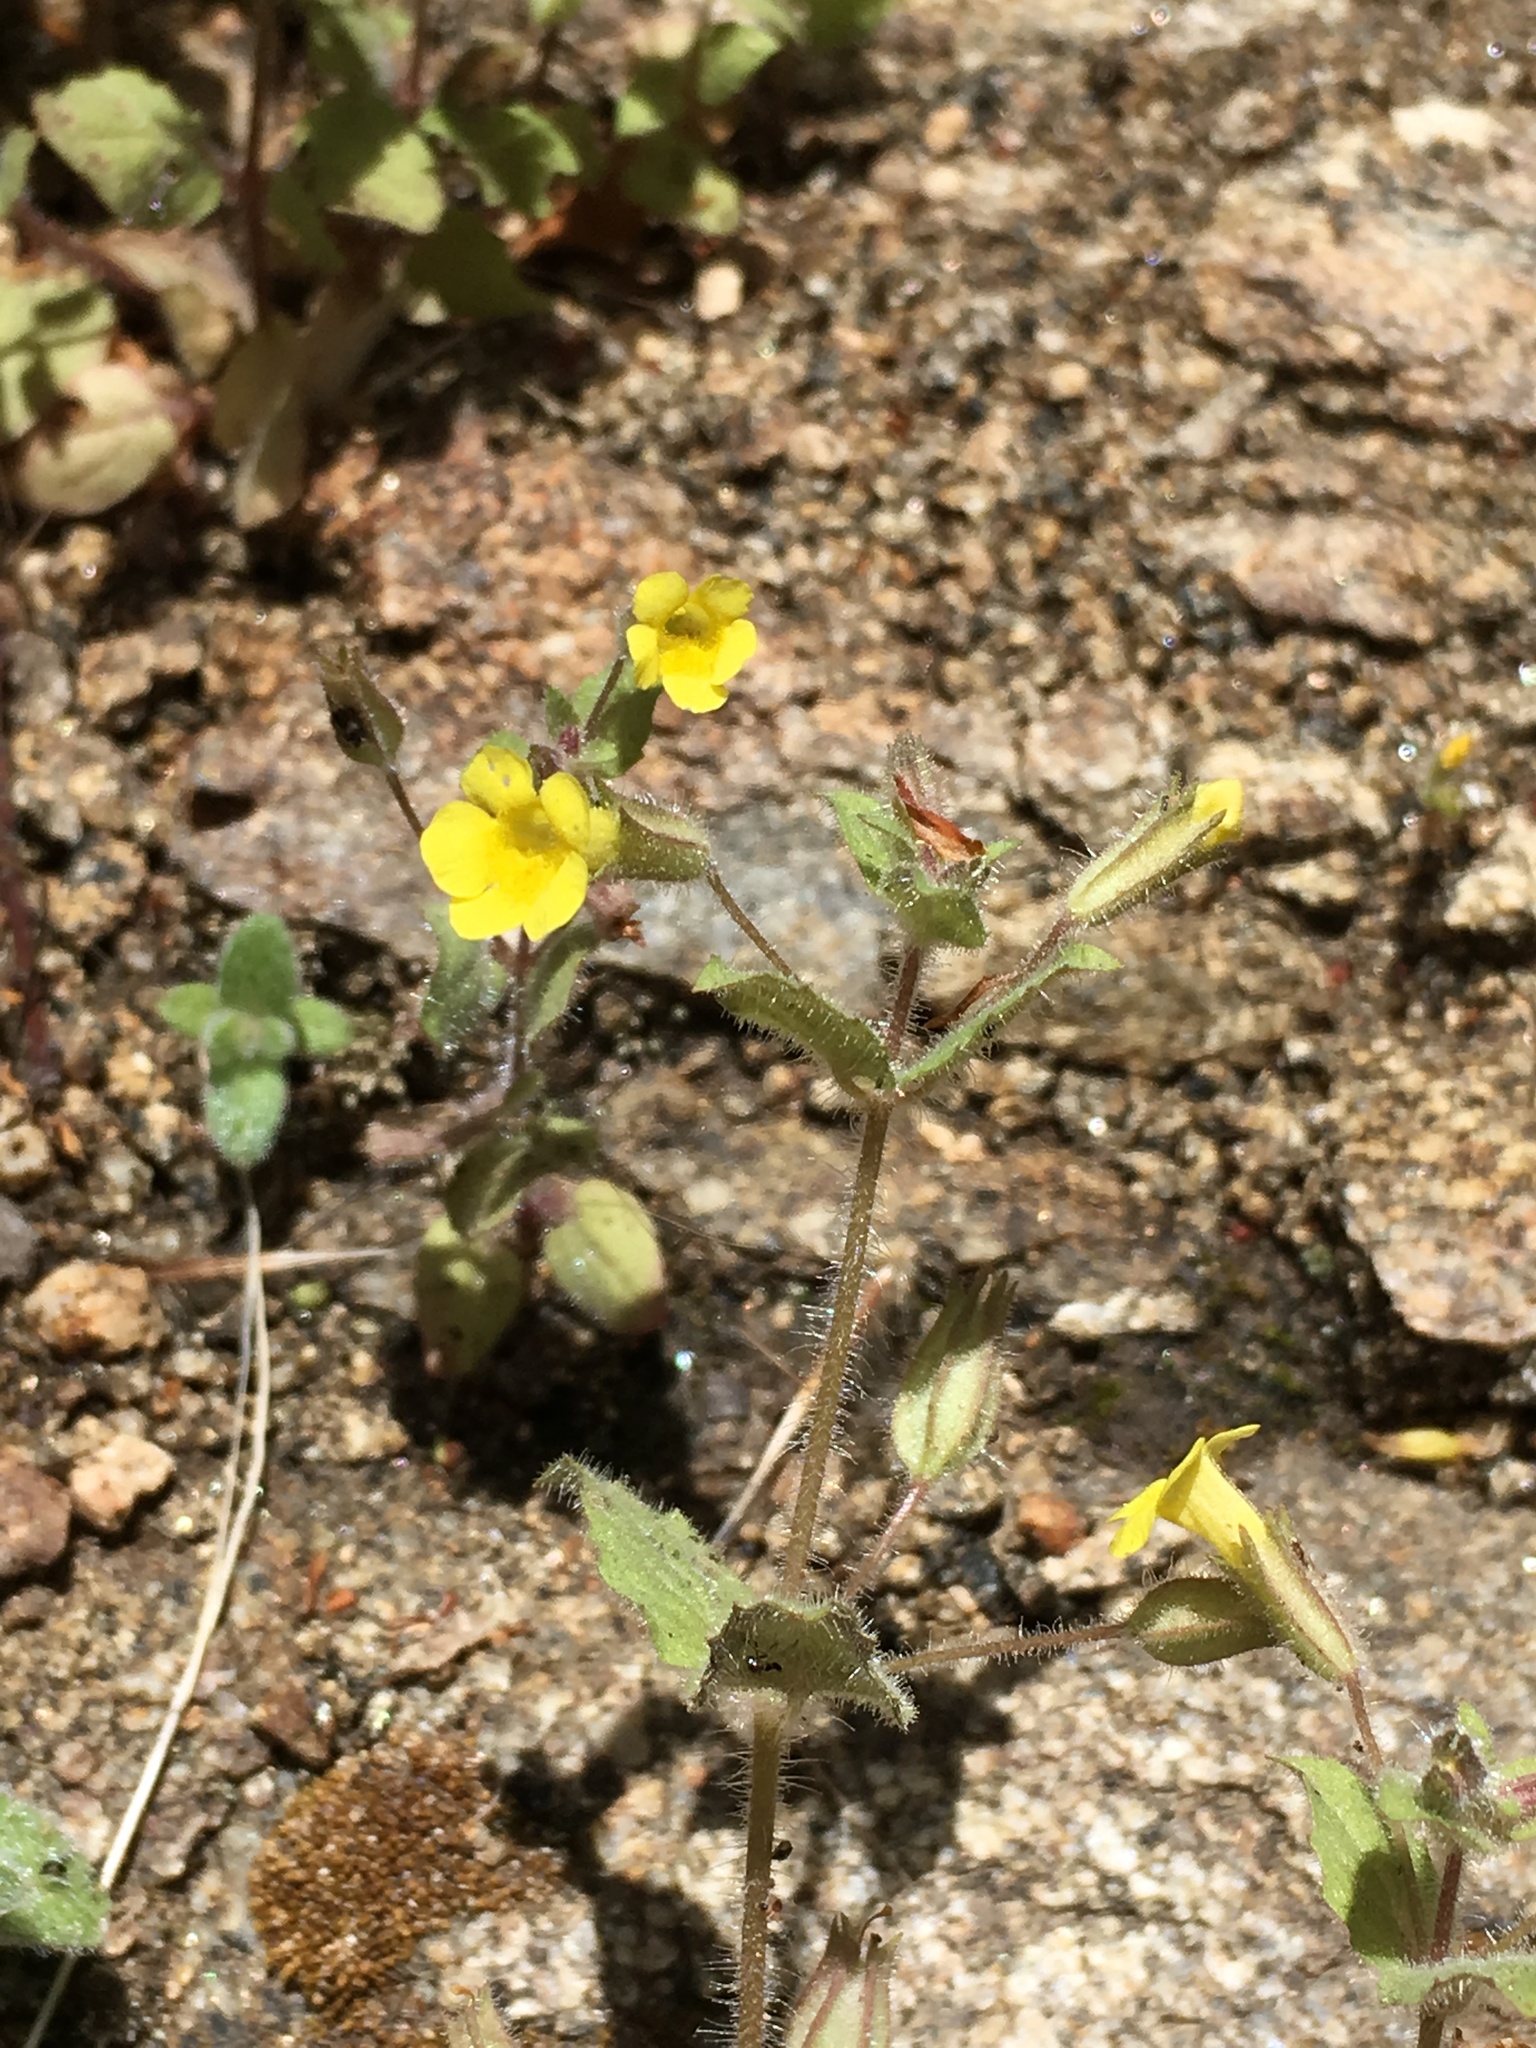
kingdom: Plantae
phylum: Tracheophyta
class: Magnoliopsida
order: Lamiales
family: Phrymaceae
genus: Erythranthe
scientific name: Erythranthe floribunda
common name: Floriferous monkeyflower
